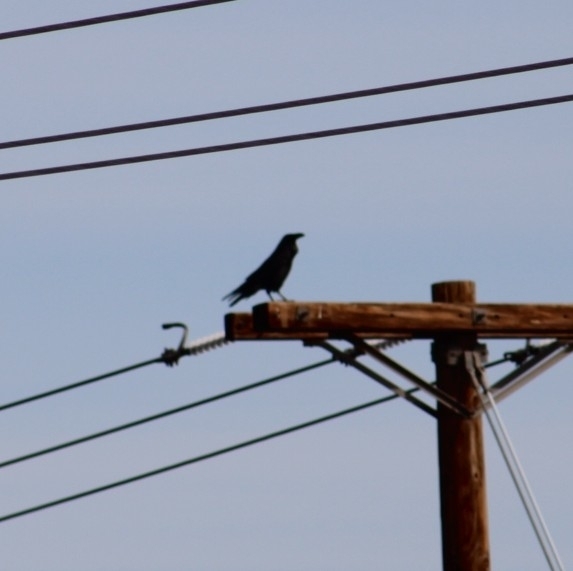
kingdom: Animalia
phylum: Chordata
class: Aves
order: Passeriformes
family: Corvidae
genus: Corvus
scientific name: Corvus corax
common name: Common raven
